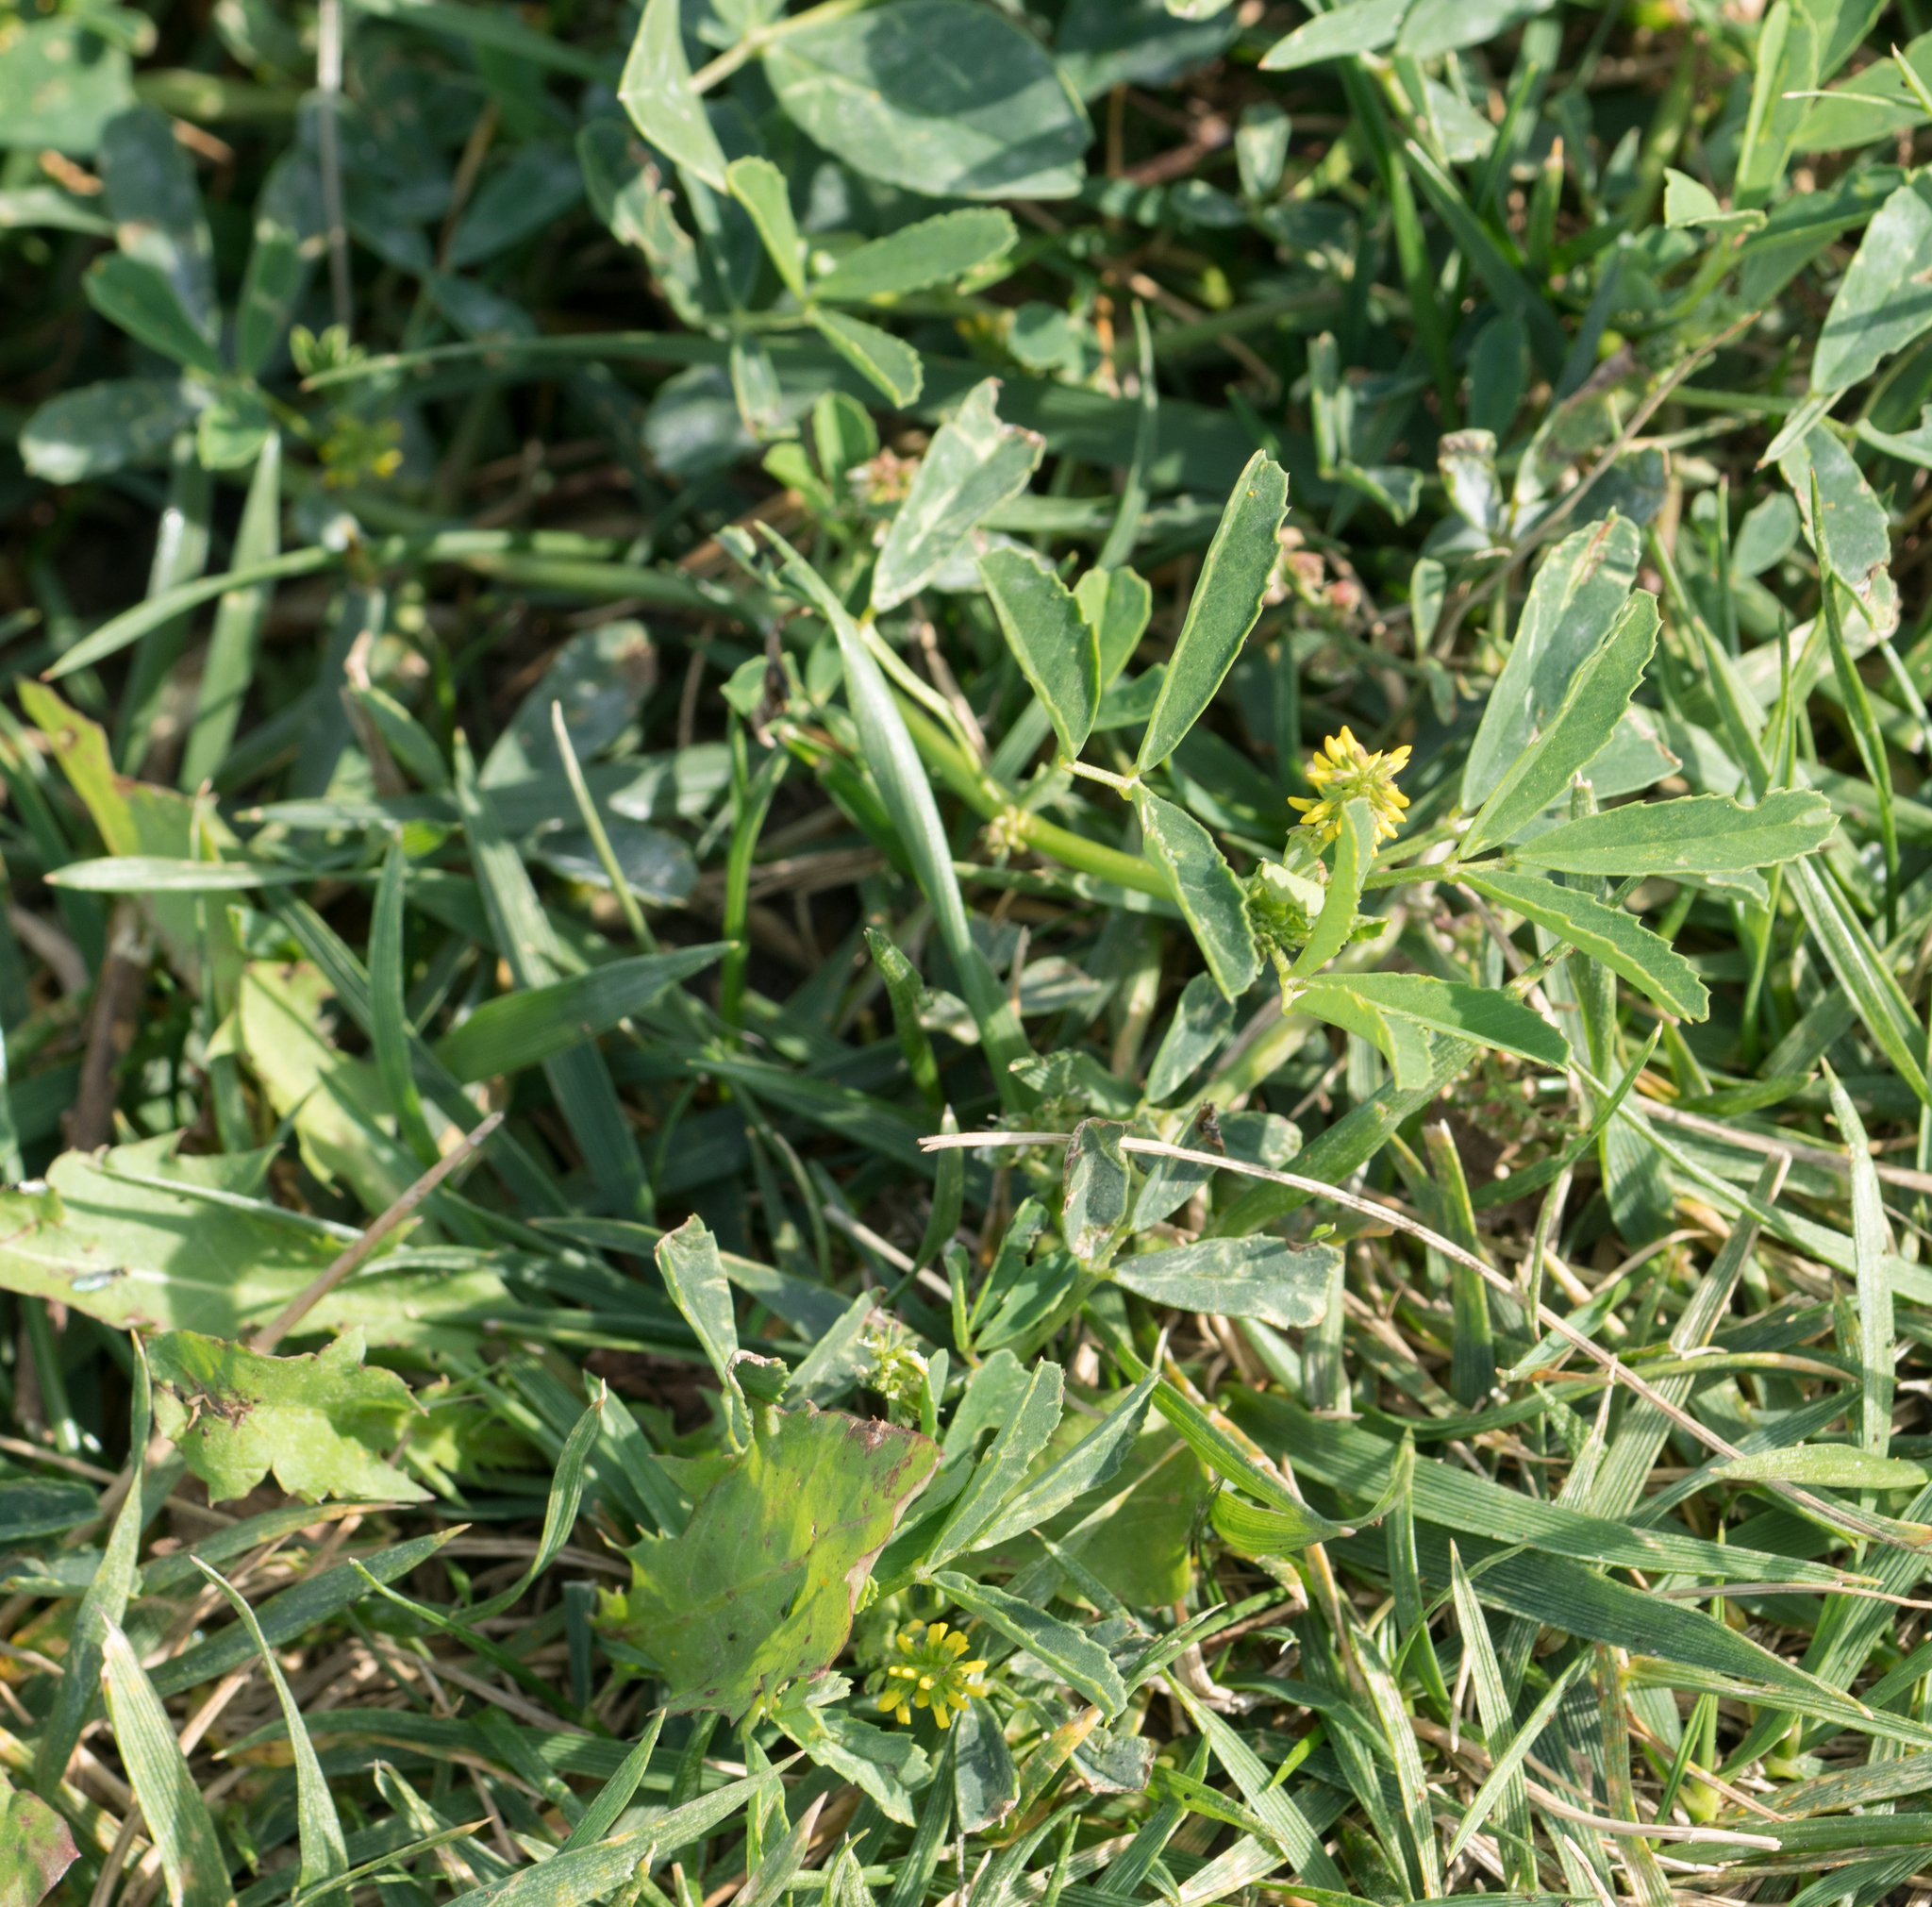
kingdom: Plantae
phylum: Tracheophyta
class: Magnoliopsida
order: Fabales
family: Fabaceae
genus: Melilotus
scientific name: Melilotus indicus
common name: Small melilot
